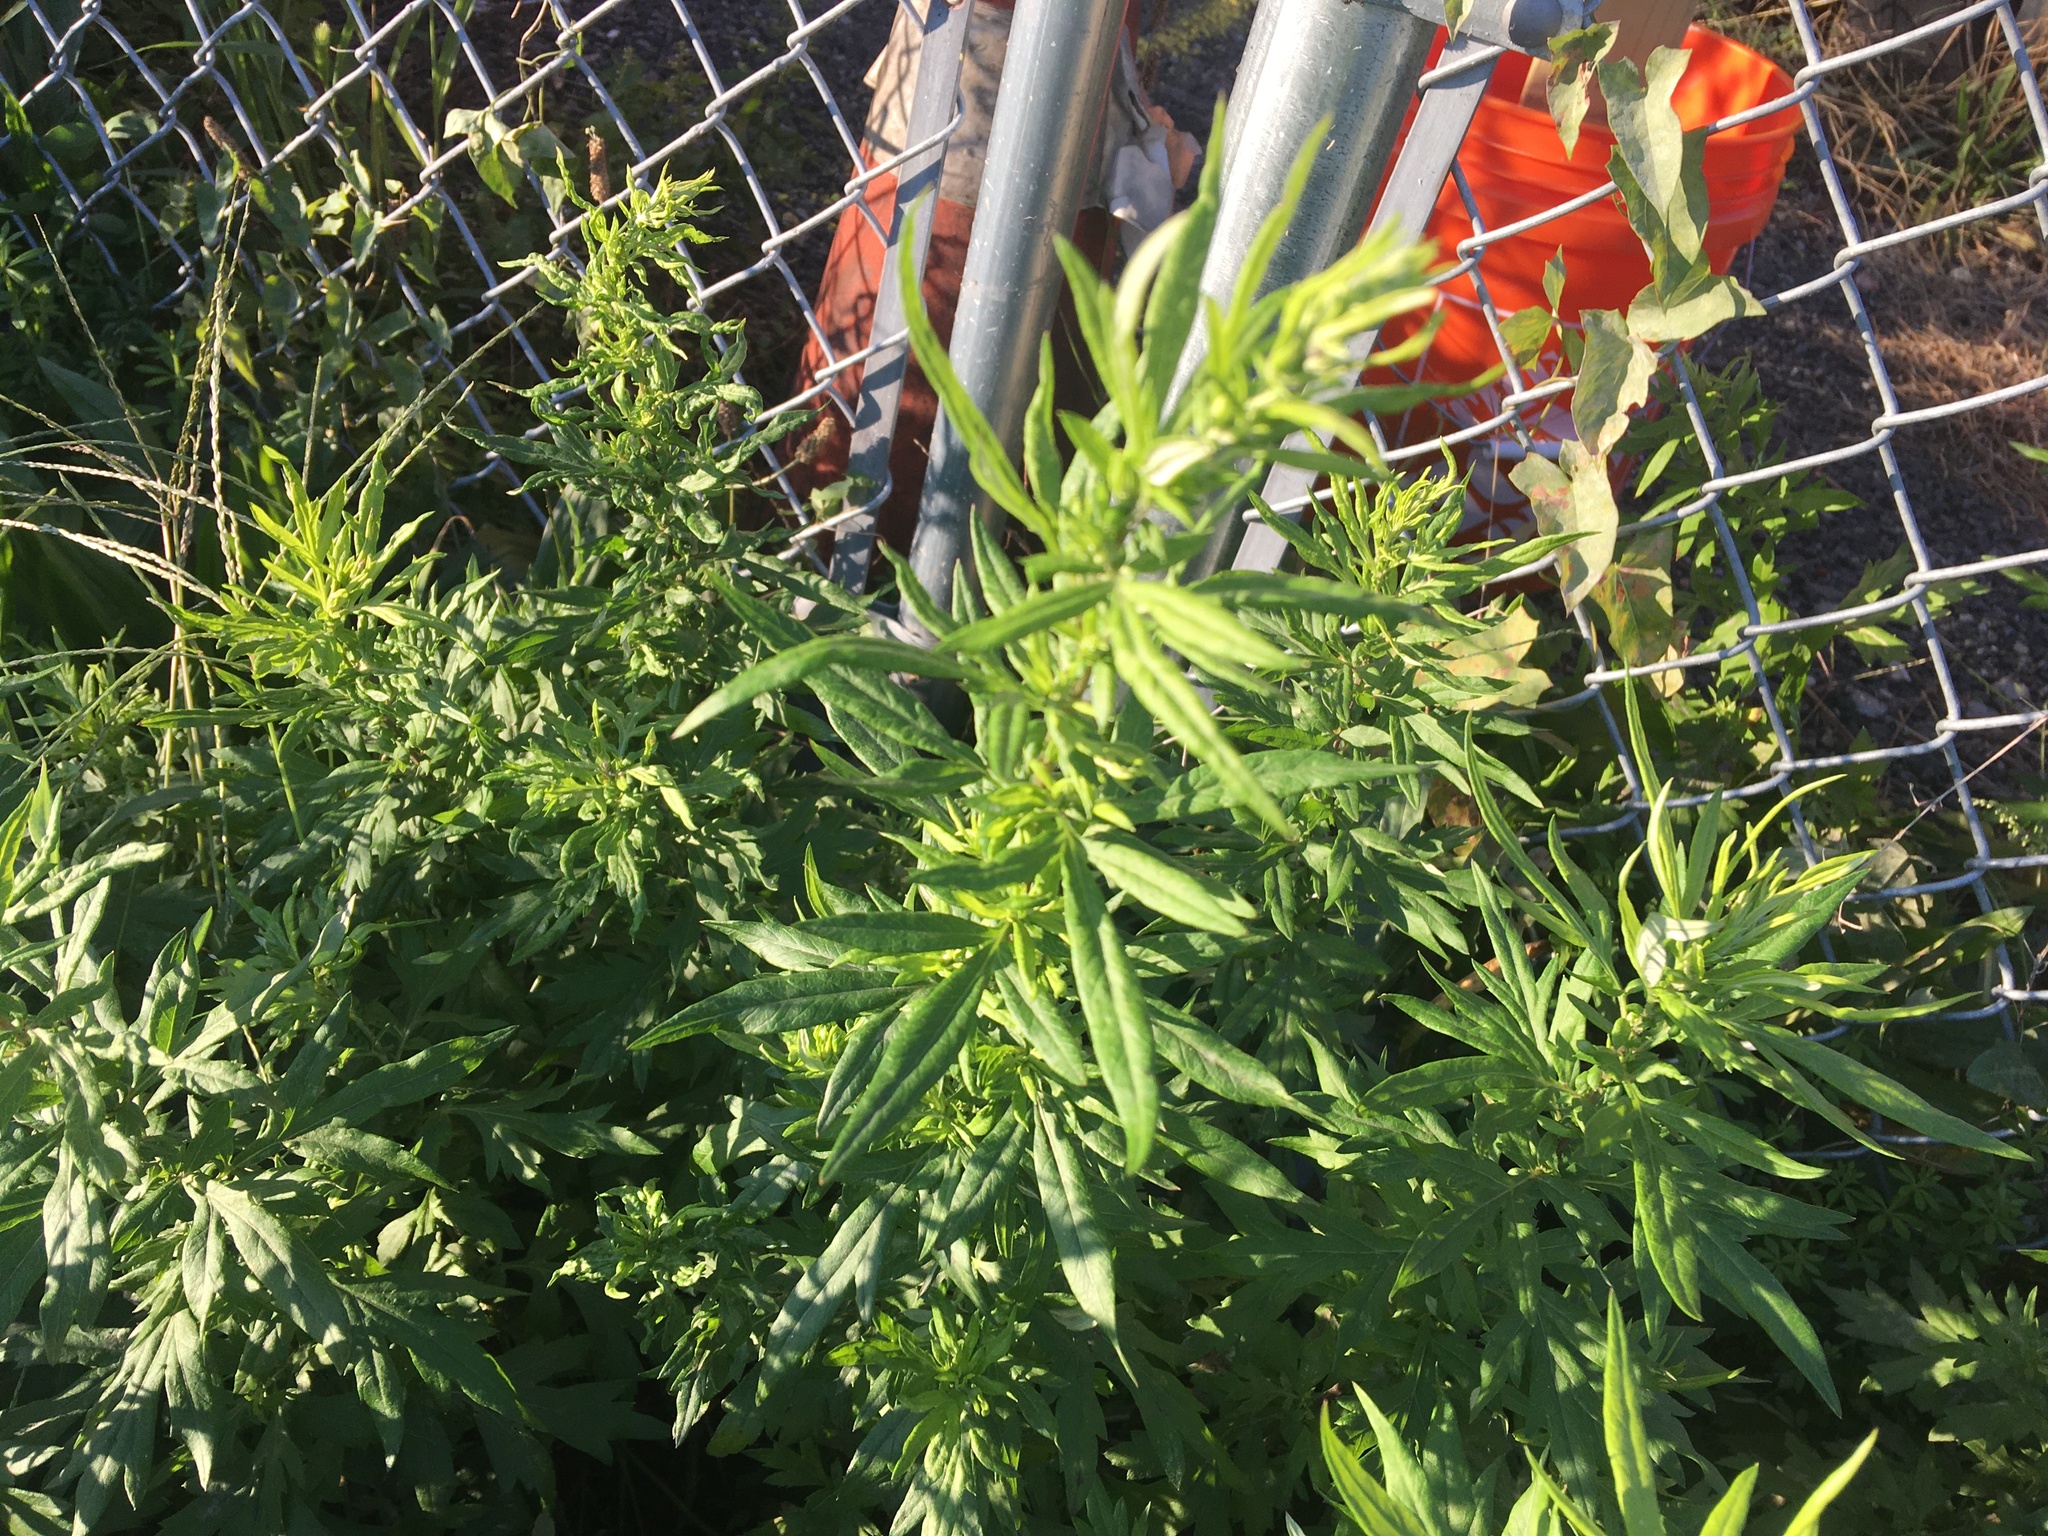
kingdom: Plantae
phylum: Tracheophyta
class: Magnoliopsida
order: Asterales
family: Asteraceae
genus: Artemisia
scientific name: Artemisia vulgaris
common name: Mugwort
